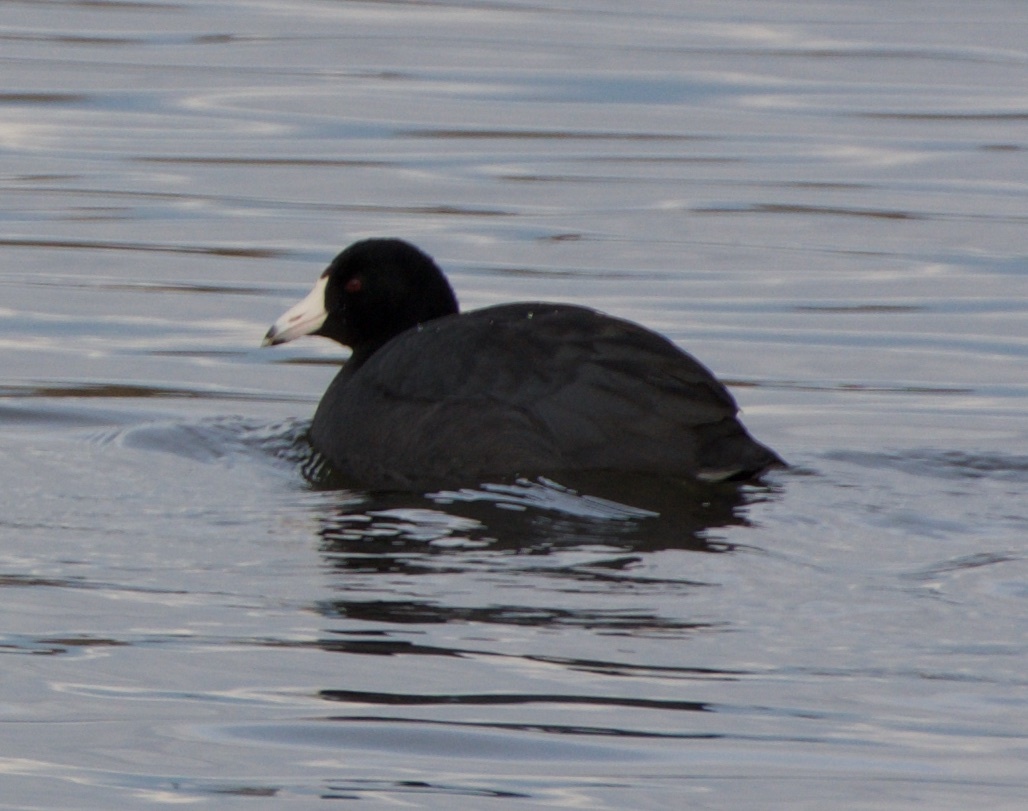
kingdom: Animalia
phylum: Chordata
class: Aves
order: Gruiformes
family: Rallidae
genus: Fulica
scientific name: Fulica americana
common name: American coot
